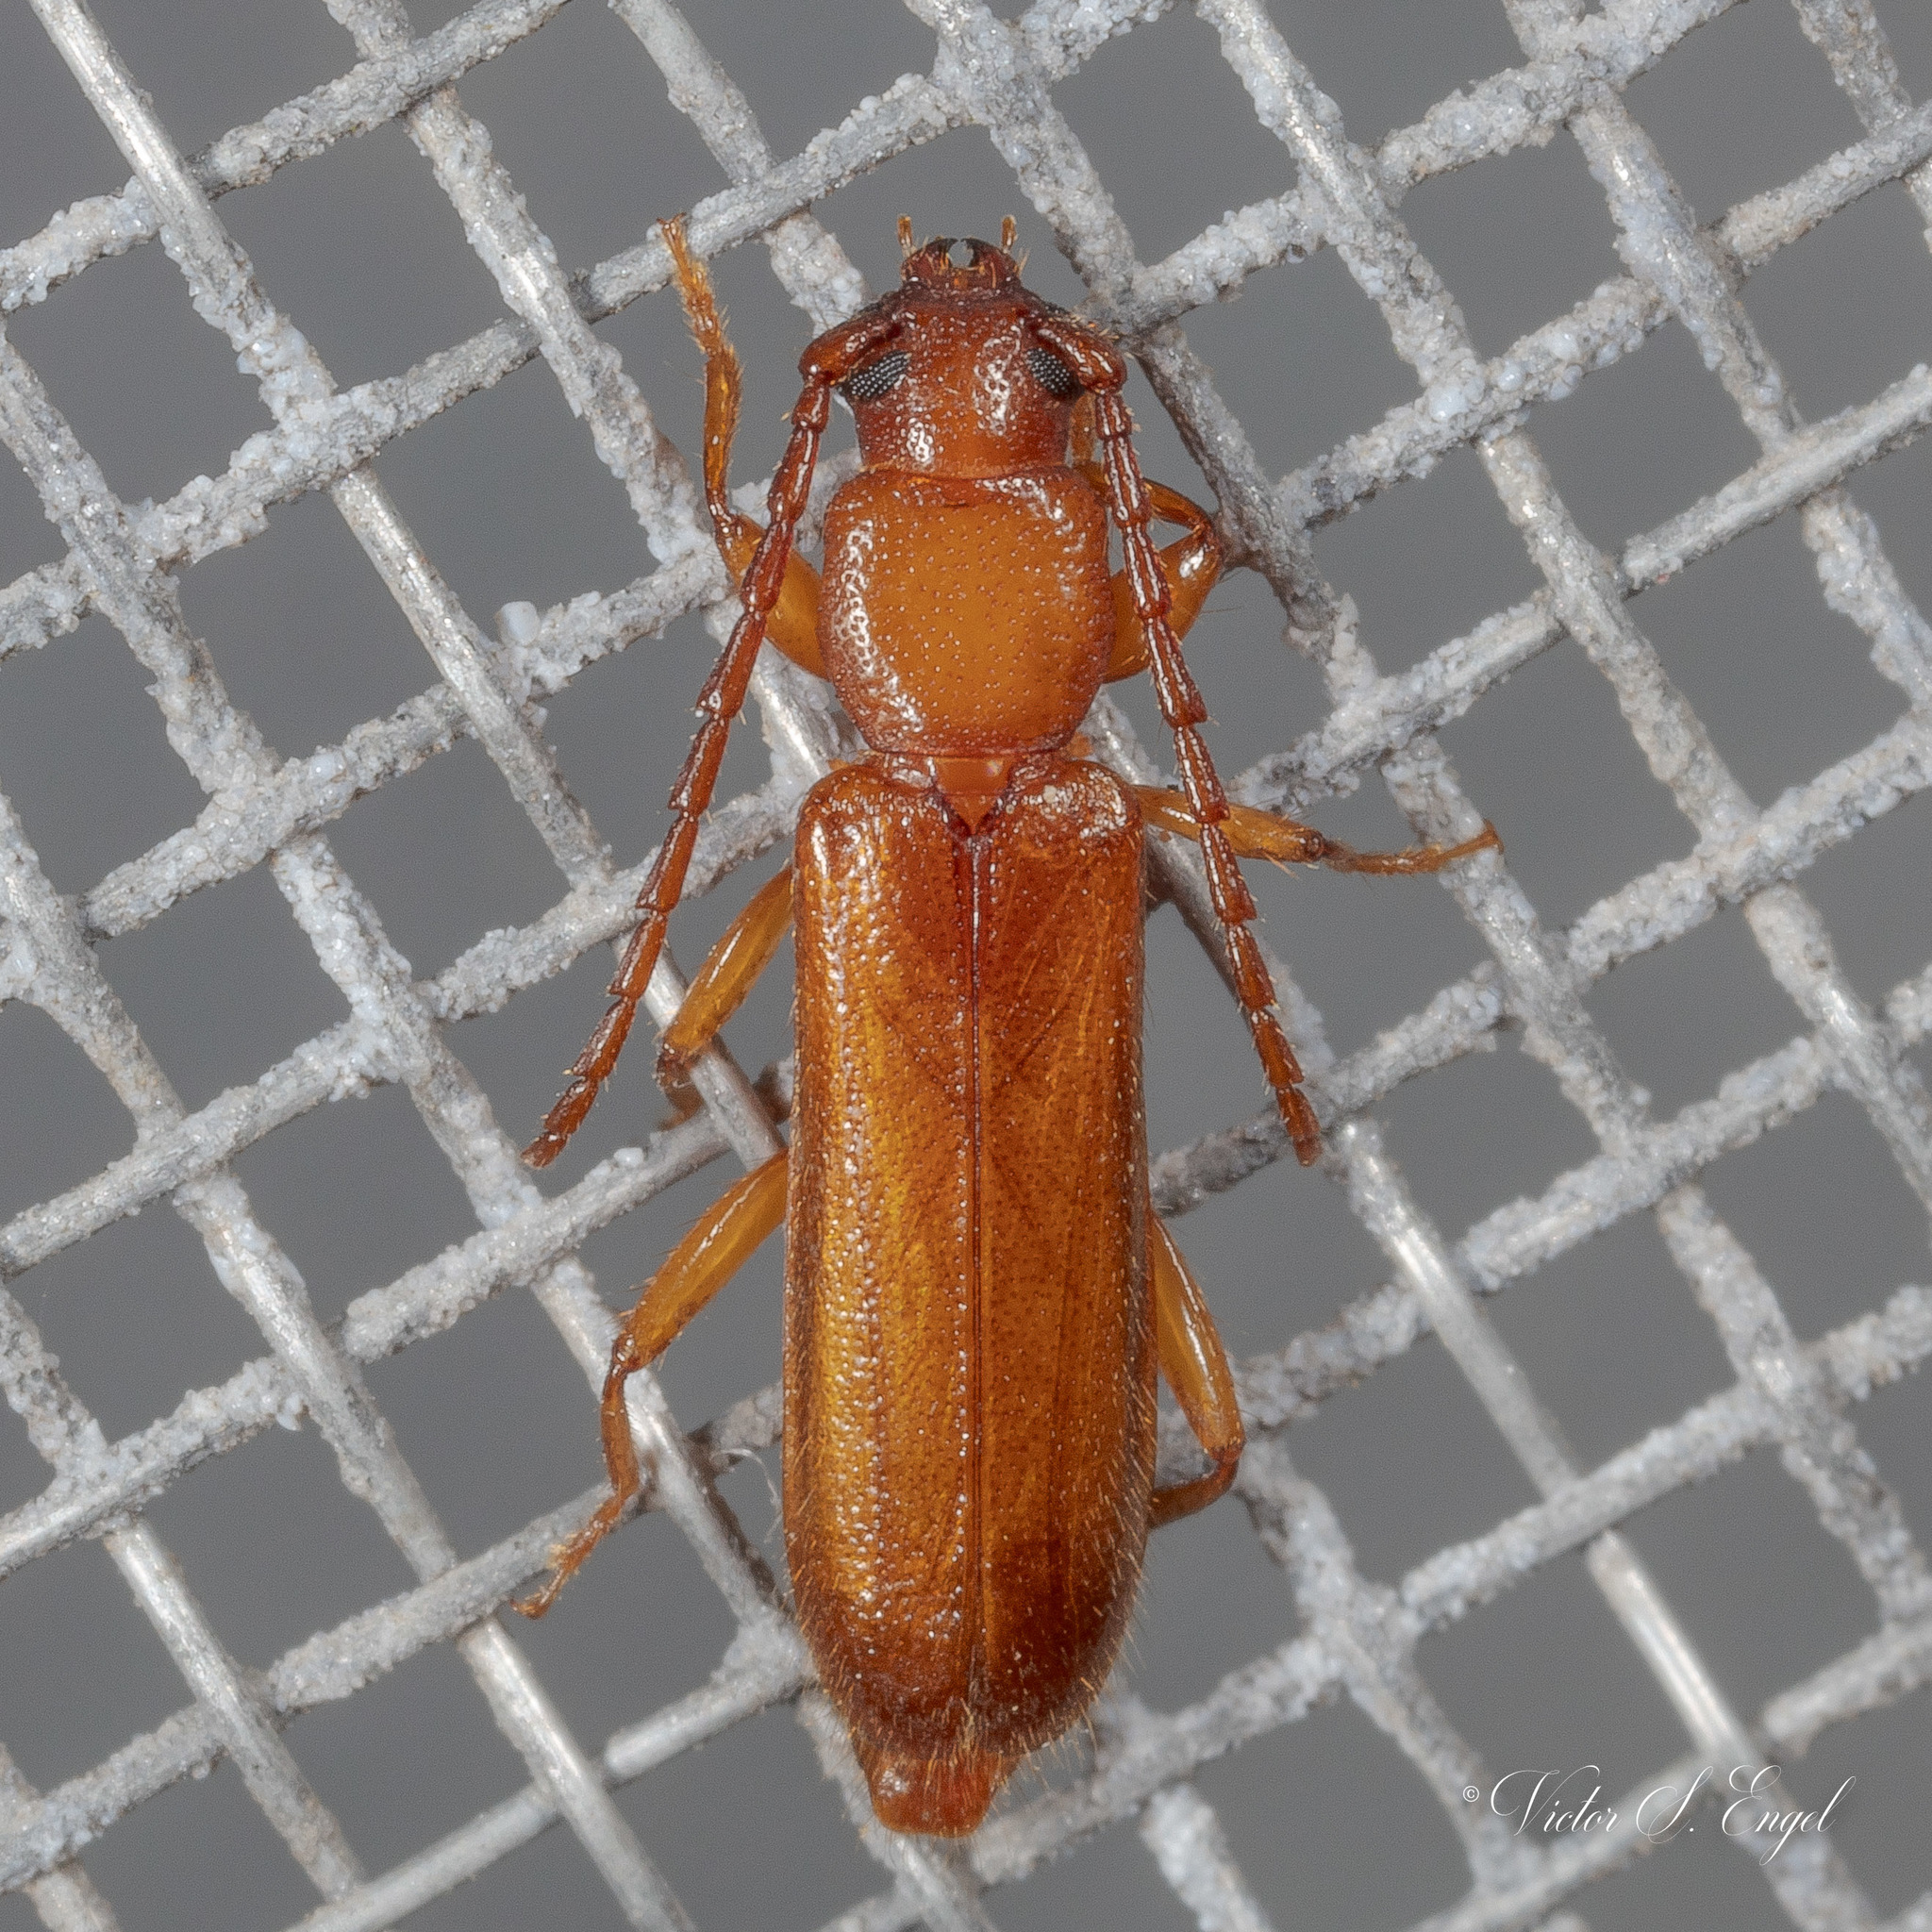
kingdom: Animalia
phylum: Arthropoda
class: Insecta
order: Coleoptera
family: Cerambycidae
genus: Smodicum
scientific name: Smodicum cucujiforme
